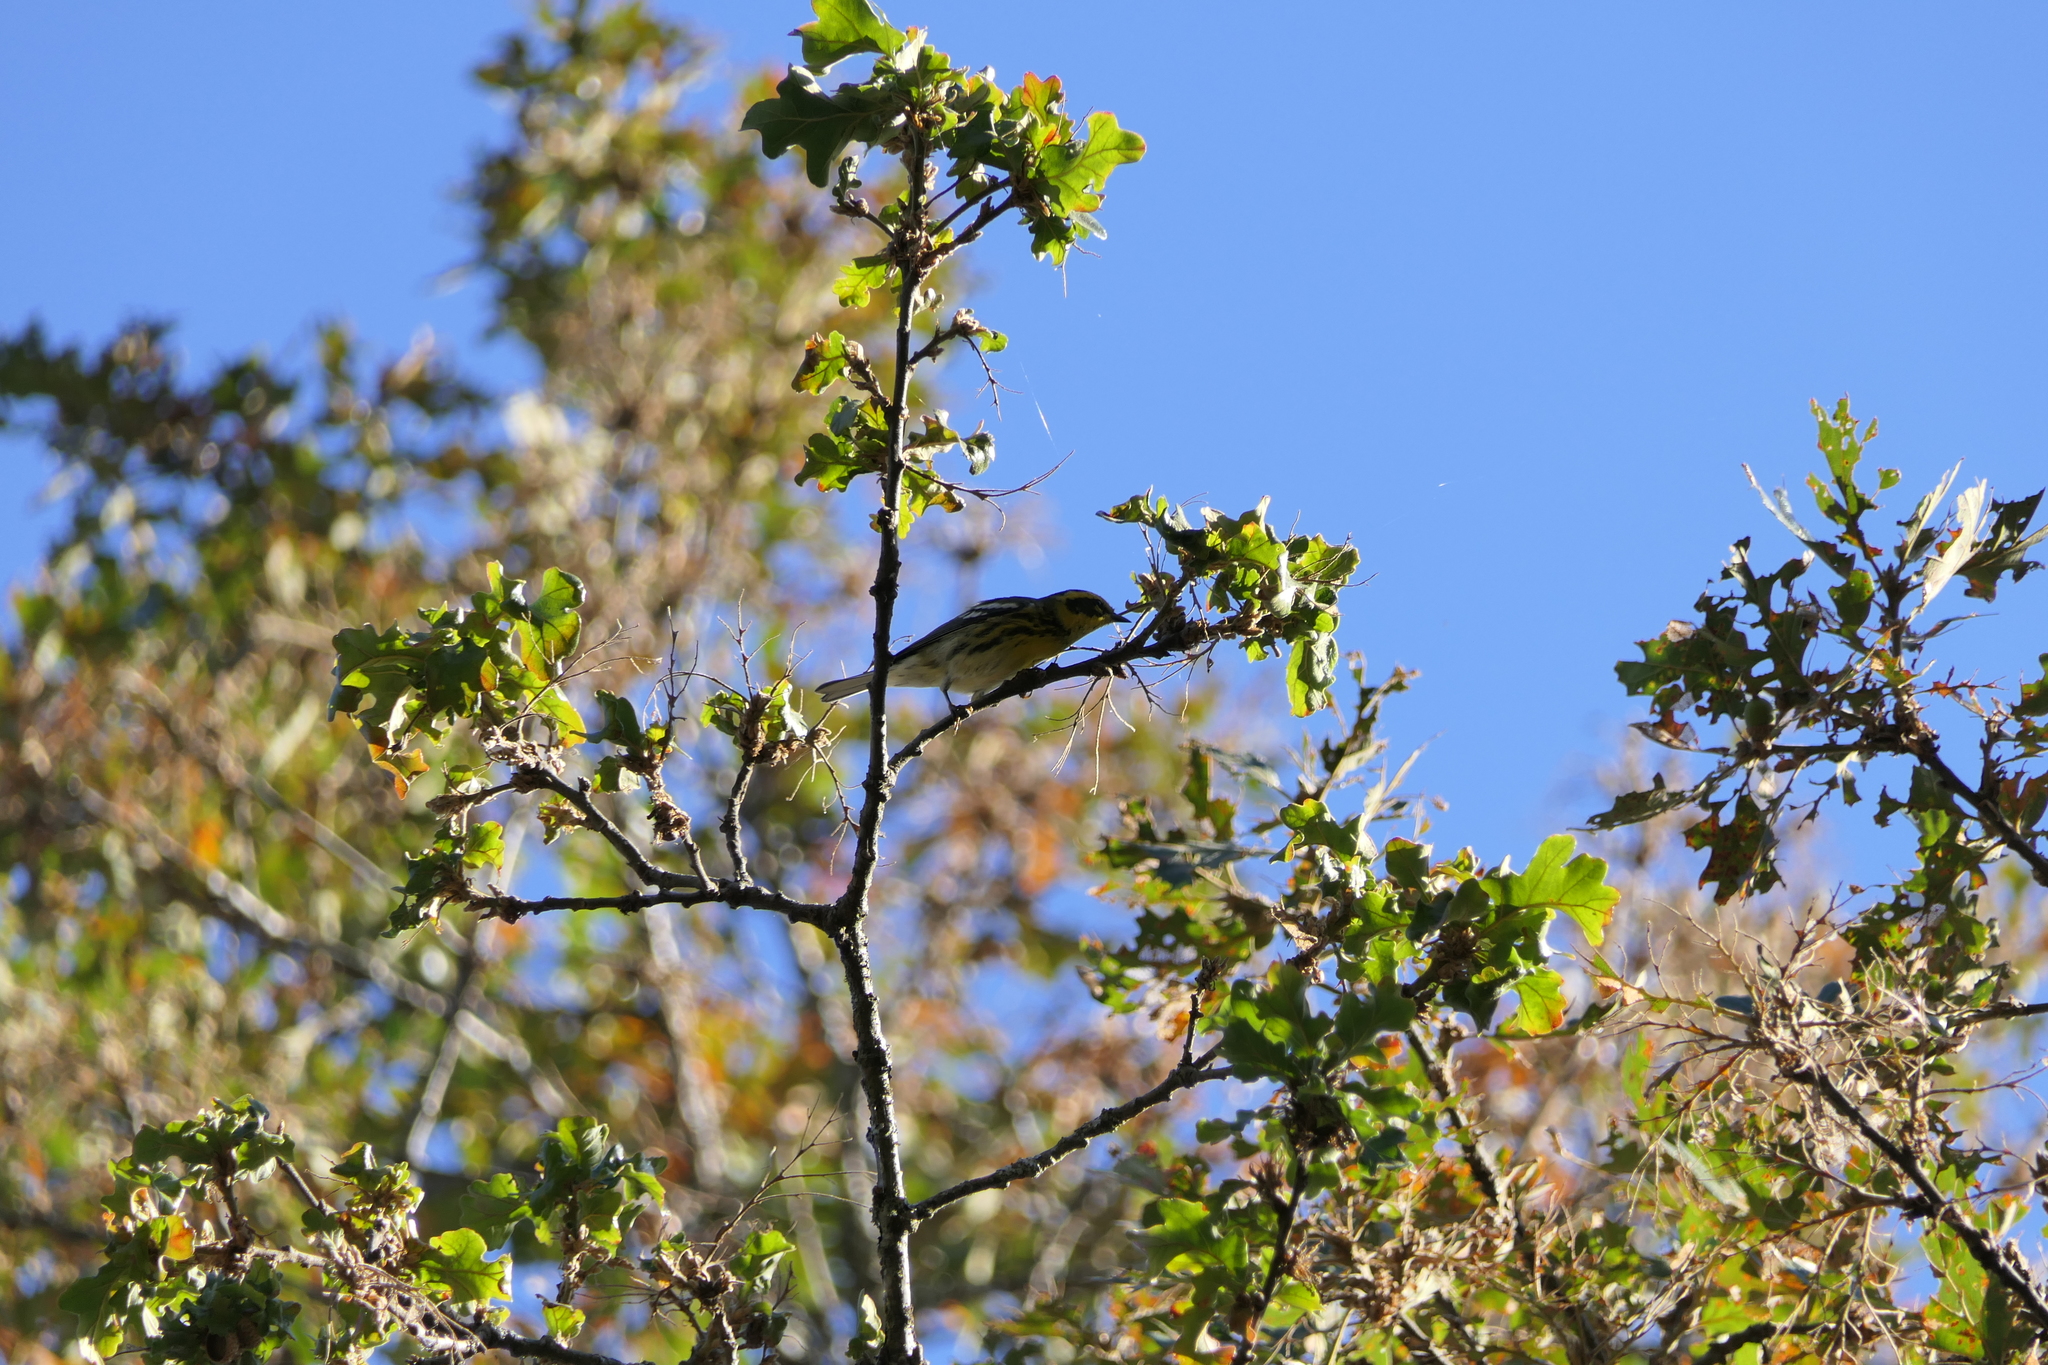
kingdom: Animalia
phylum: Chordata
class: Aves
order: Passeriformes
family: Parulidae
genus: Setophaga
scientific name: Setophaga townsendi
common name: Townsend's warbler
